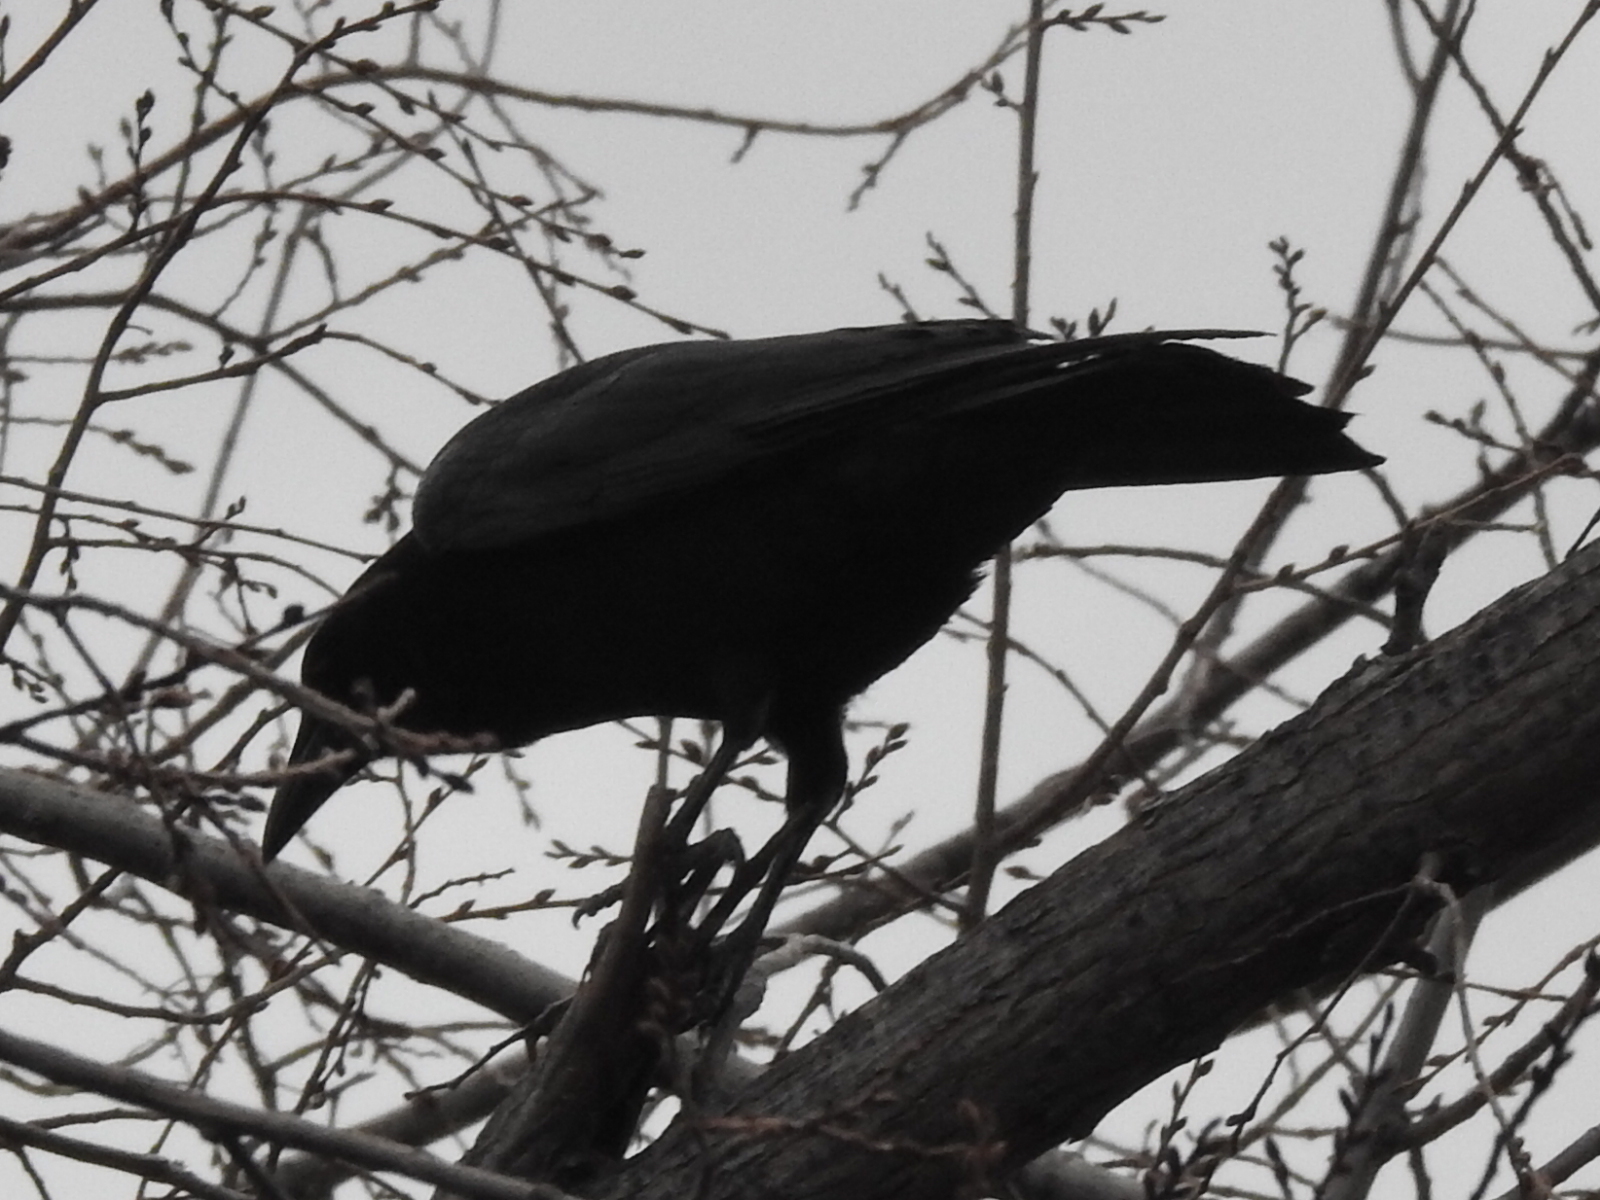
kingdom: Animalia
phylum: Chordata
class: Aves
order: Passeriformes
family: Corvidae
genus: Corvus
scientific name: Corvus brachyrhynchos
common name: American crow
